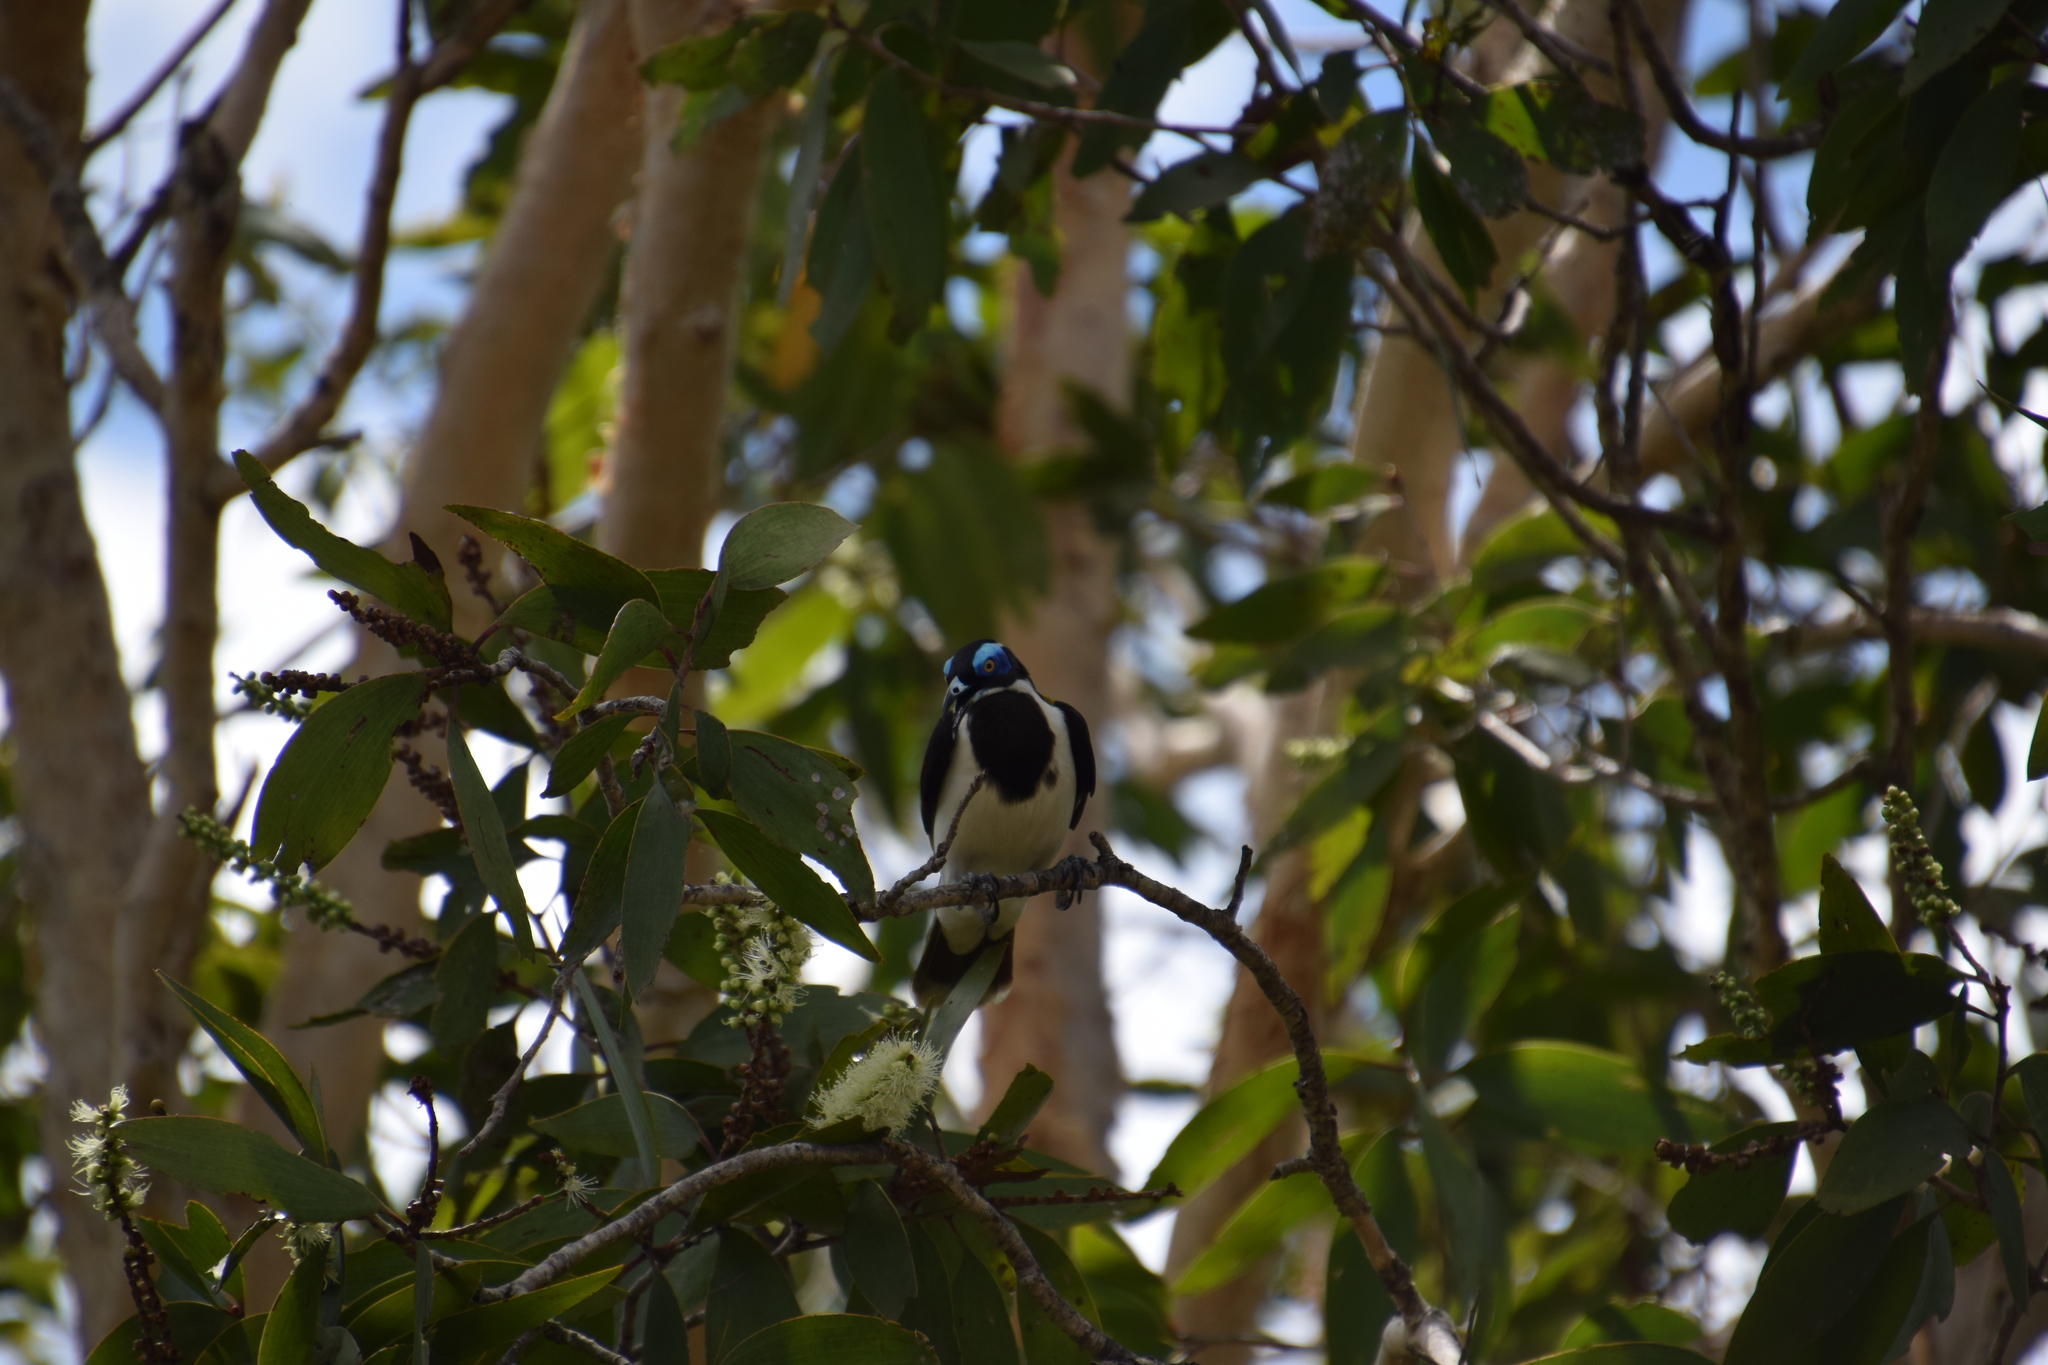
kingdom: Animalia
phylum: Chordata
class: Aves
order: Passeriformes
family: Meliphagidae
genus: Entomyzon
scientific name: Entomyzon cyanotis
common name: Blue-faced honeyeater
